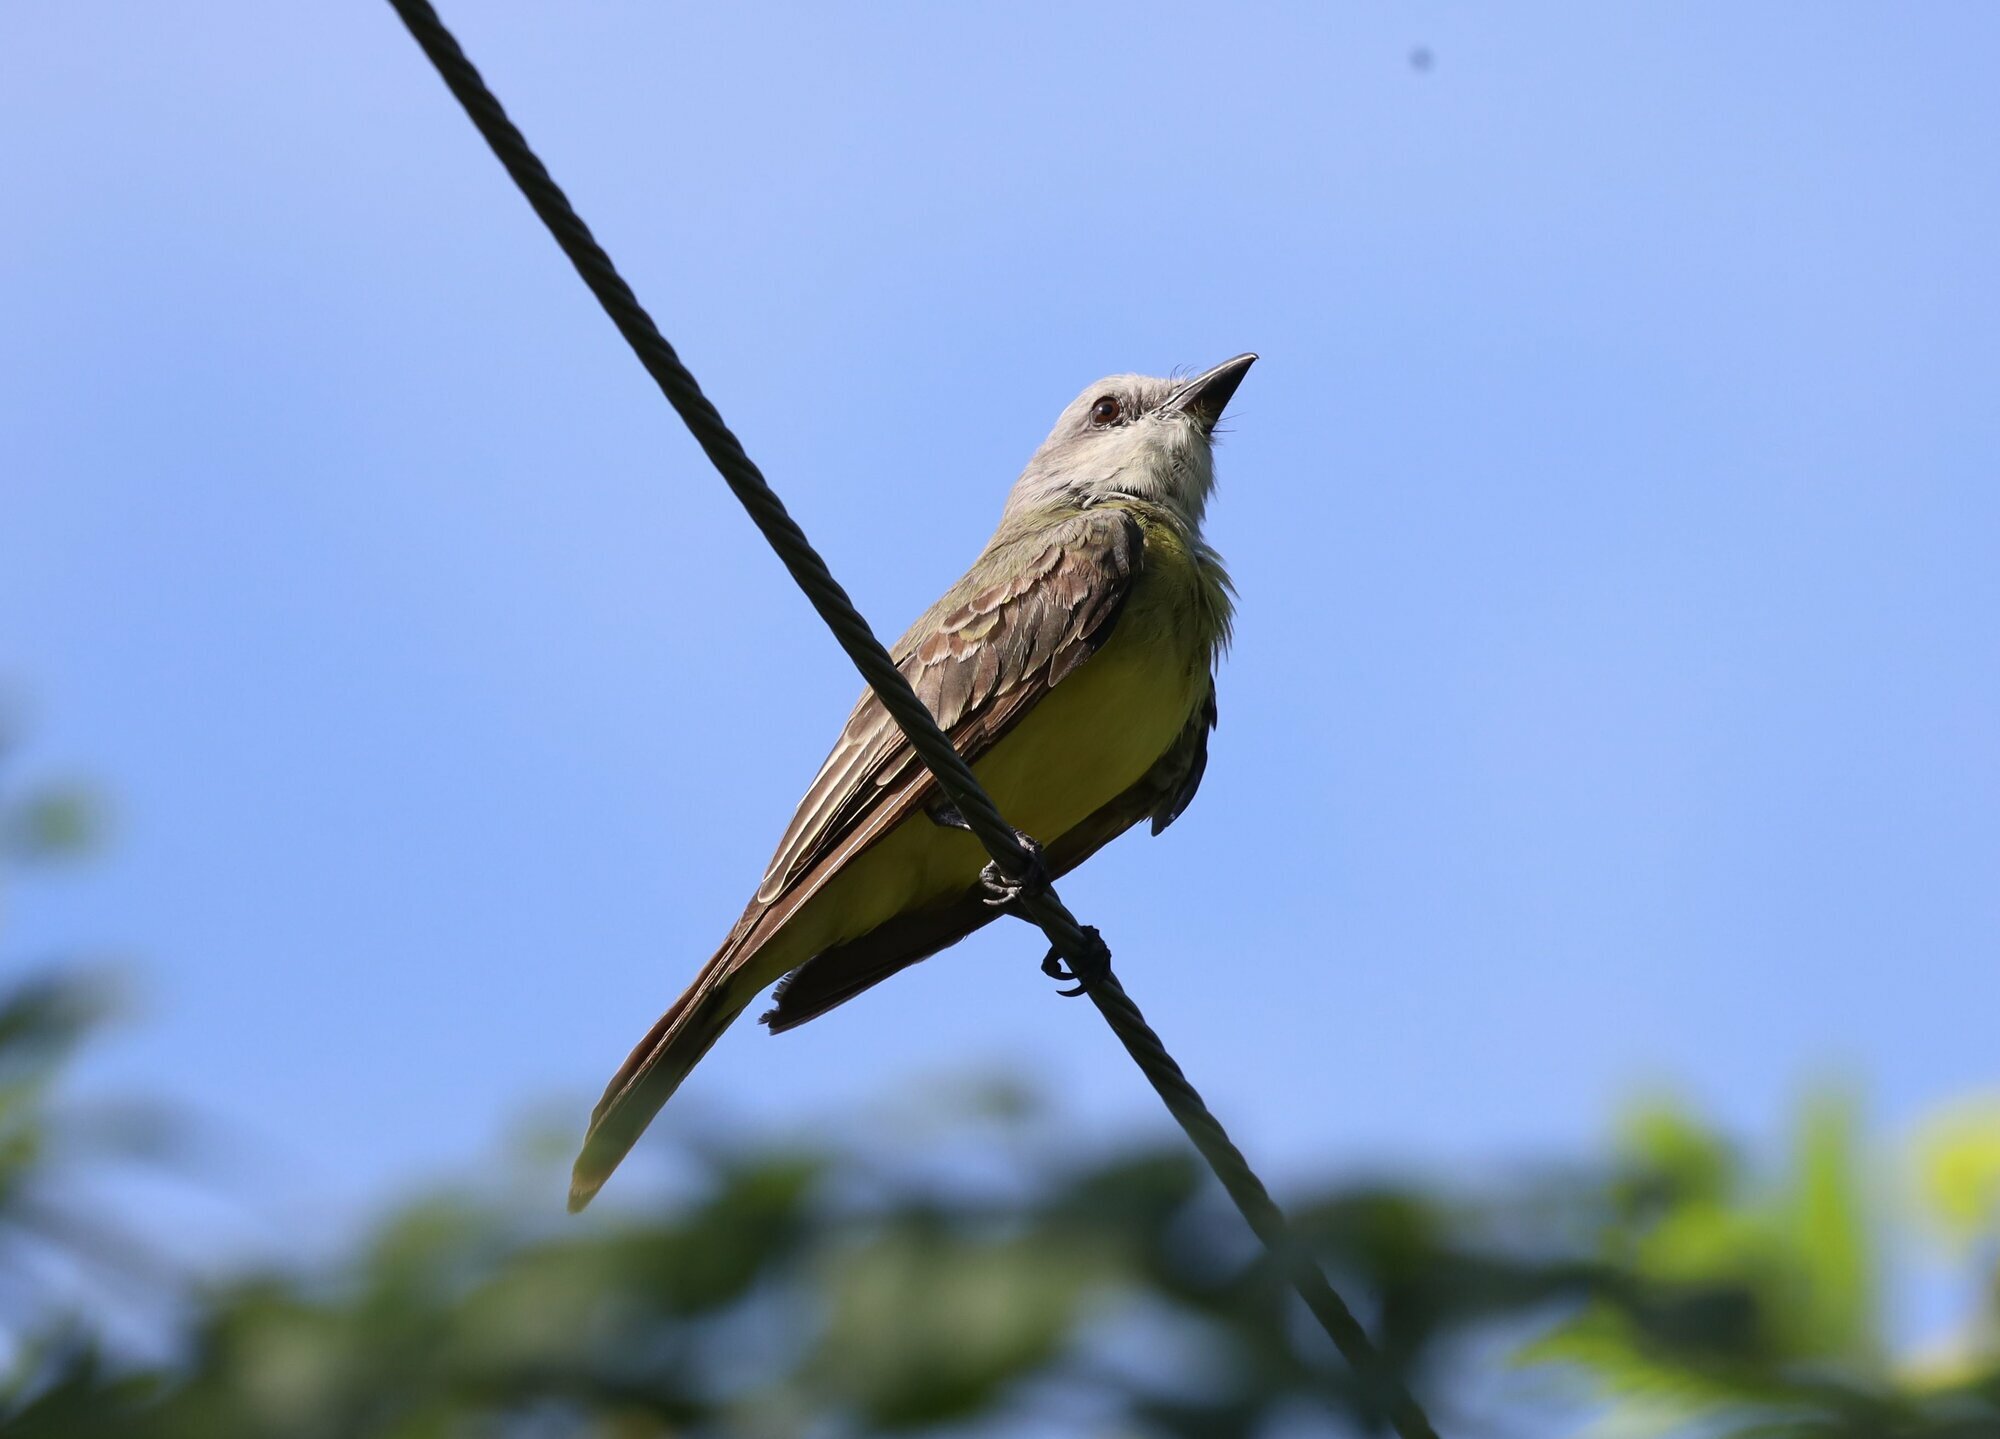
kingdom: Animalia
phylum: Chordata
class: Aves
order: Passeriformes
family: Tyrannidae
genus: Tyrannus
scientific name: Tyrannus melancholicus
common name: Tropical kingbird
